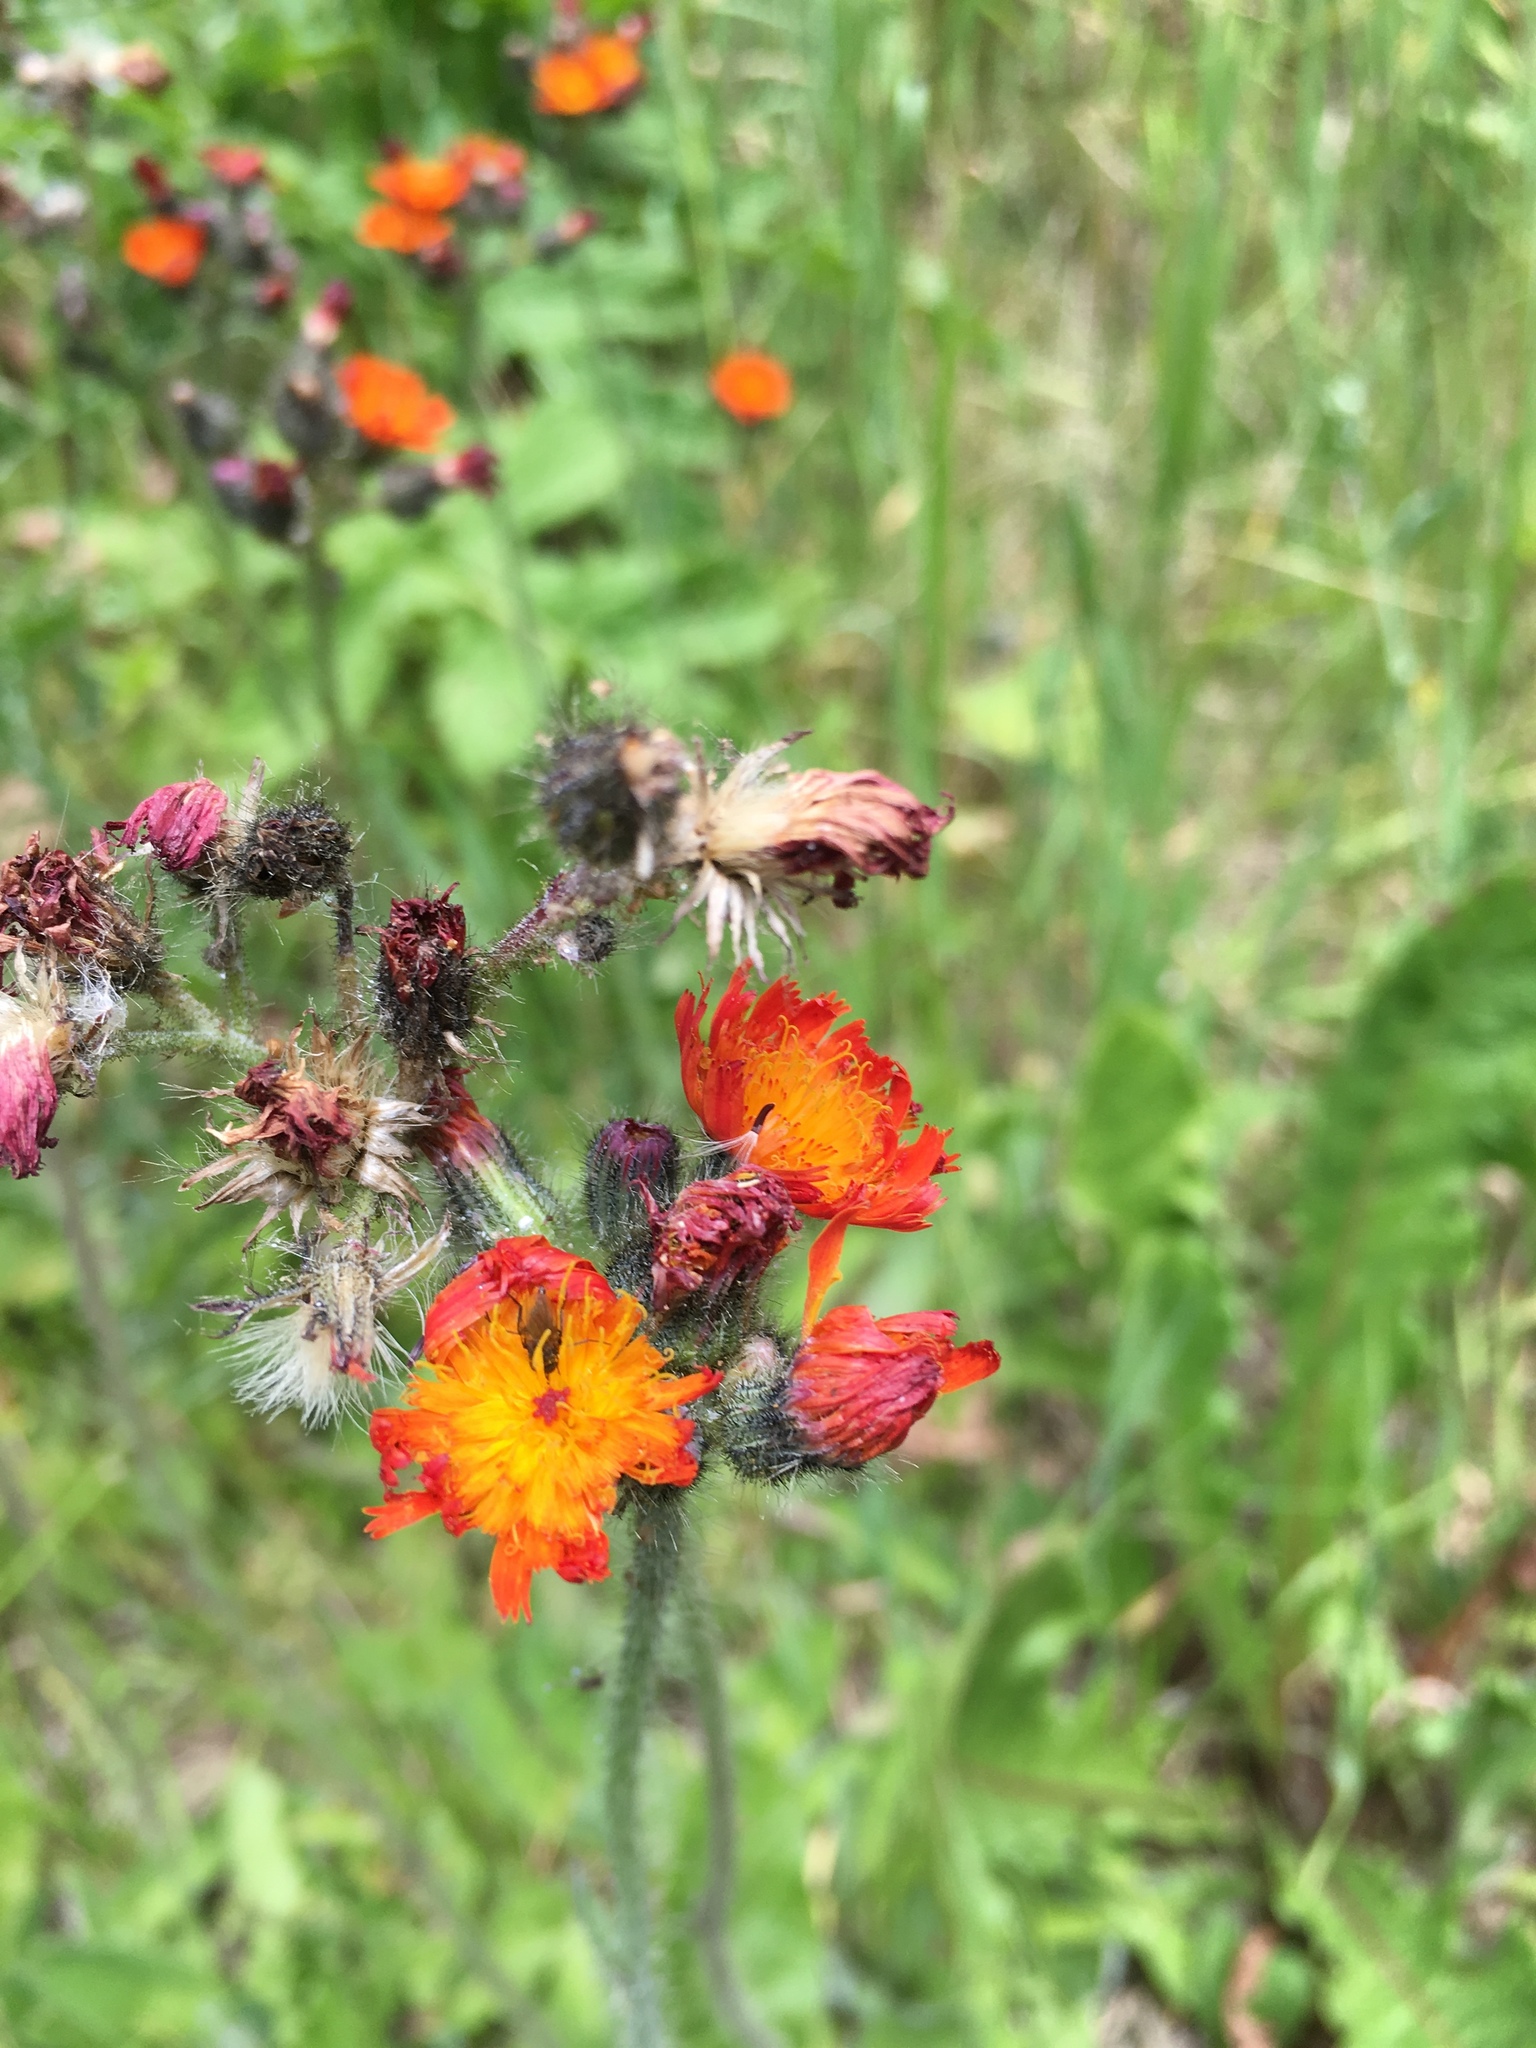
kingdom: Plantae
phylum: Tracheophyta
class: Magnoliopsida
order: Asterales
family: Asteraceae
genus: Pilosella
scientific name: Pilosella aurantiaca
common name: Fox-and-cubs
